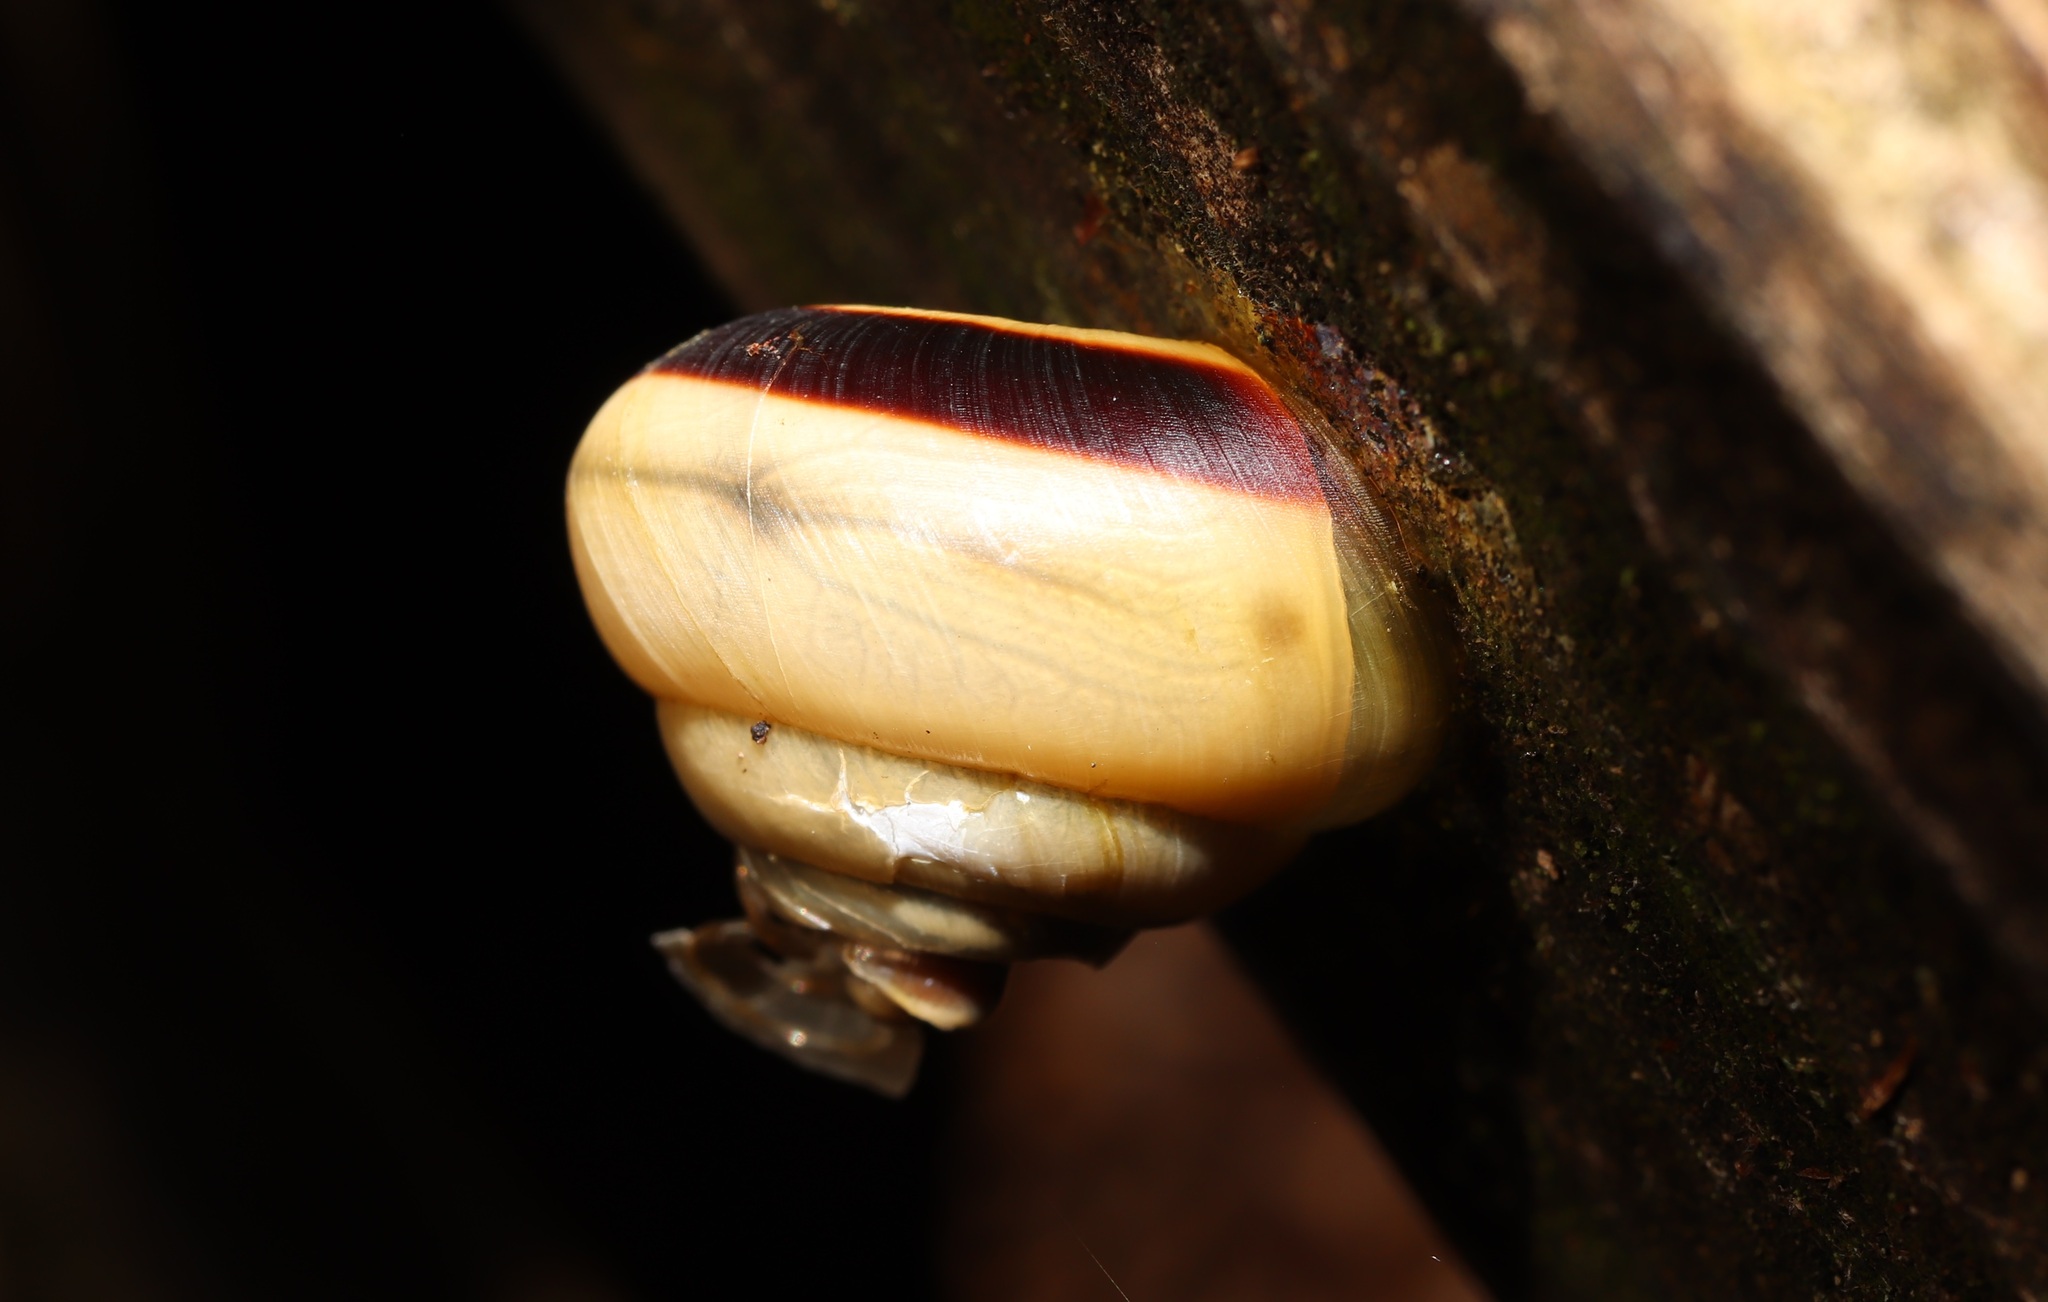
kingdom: Animalia
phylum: Mollusca
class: Gastropoda
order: Stylommatophora
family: Camaenidae
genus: Euhadra
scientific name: Euhadra callizona
